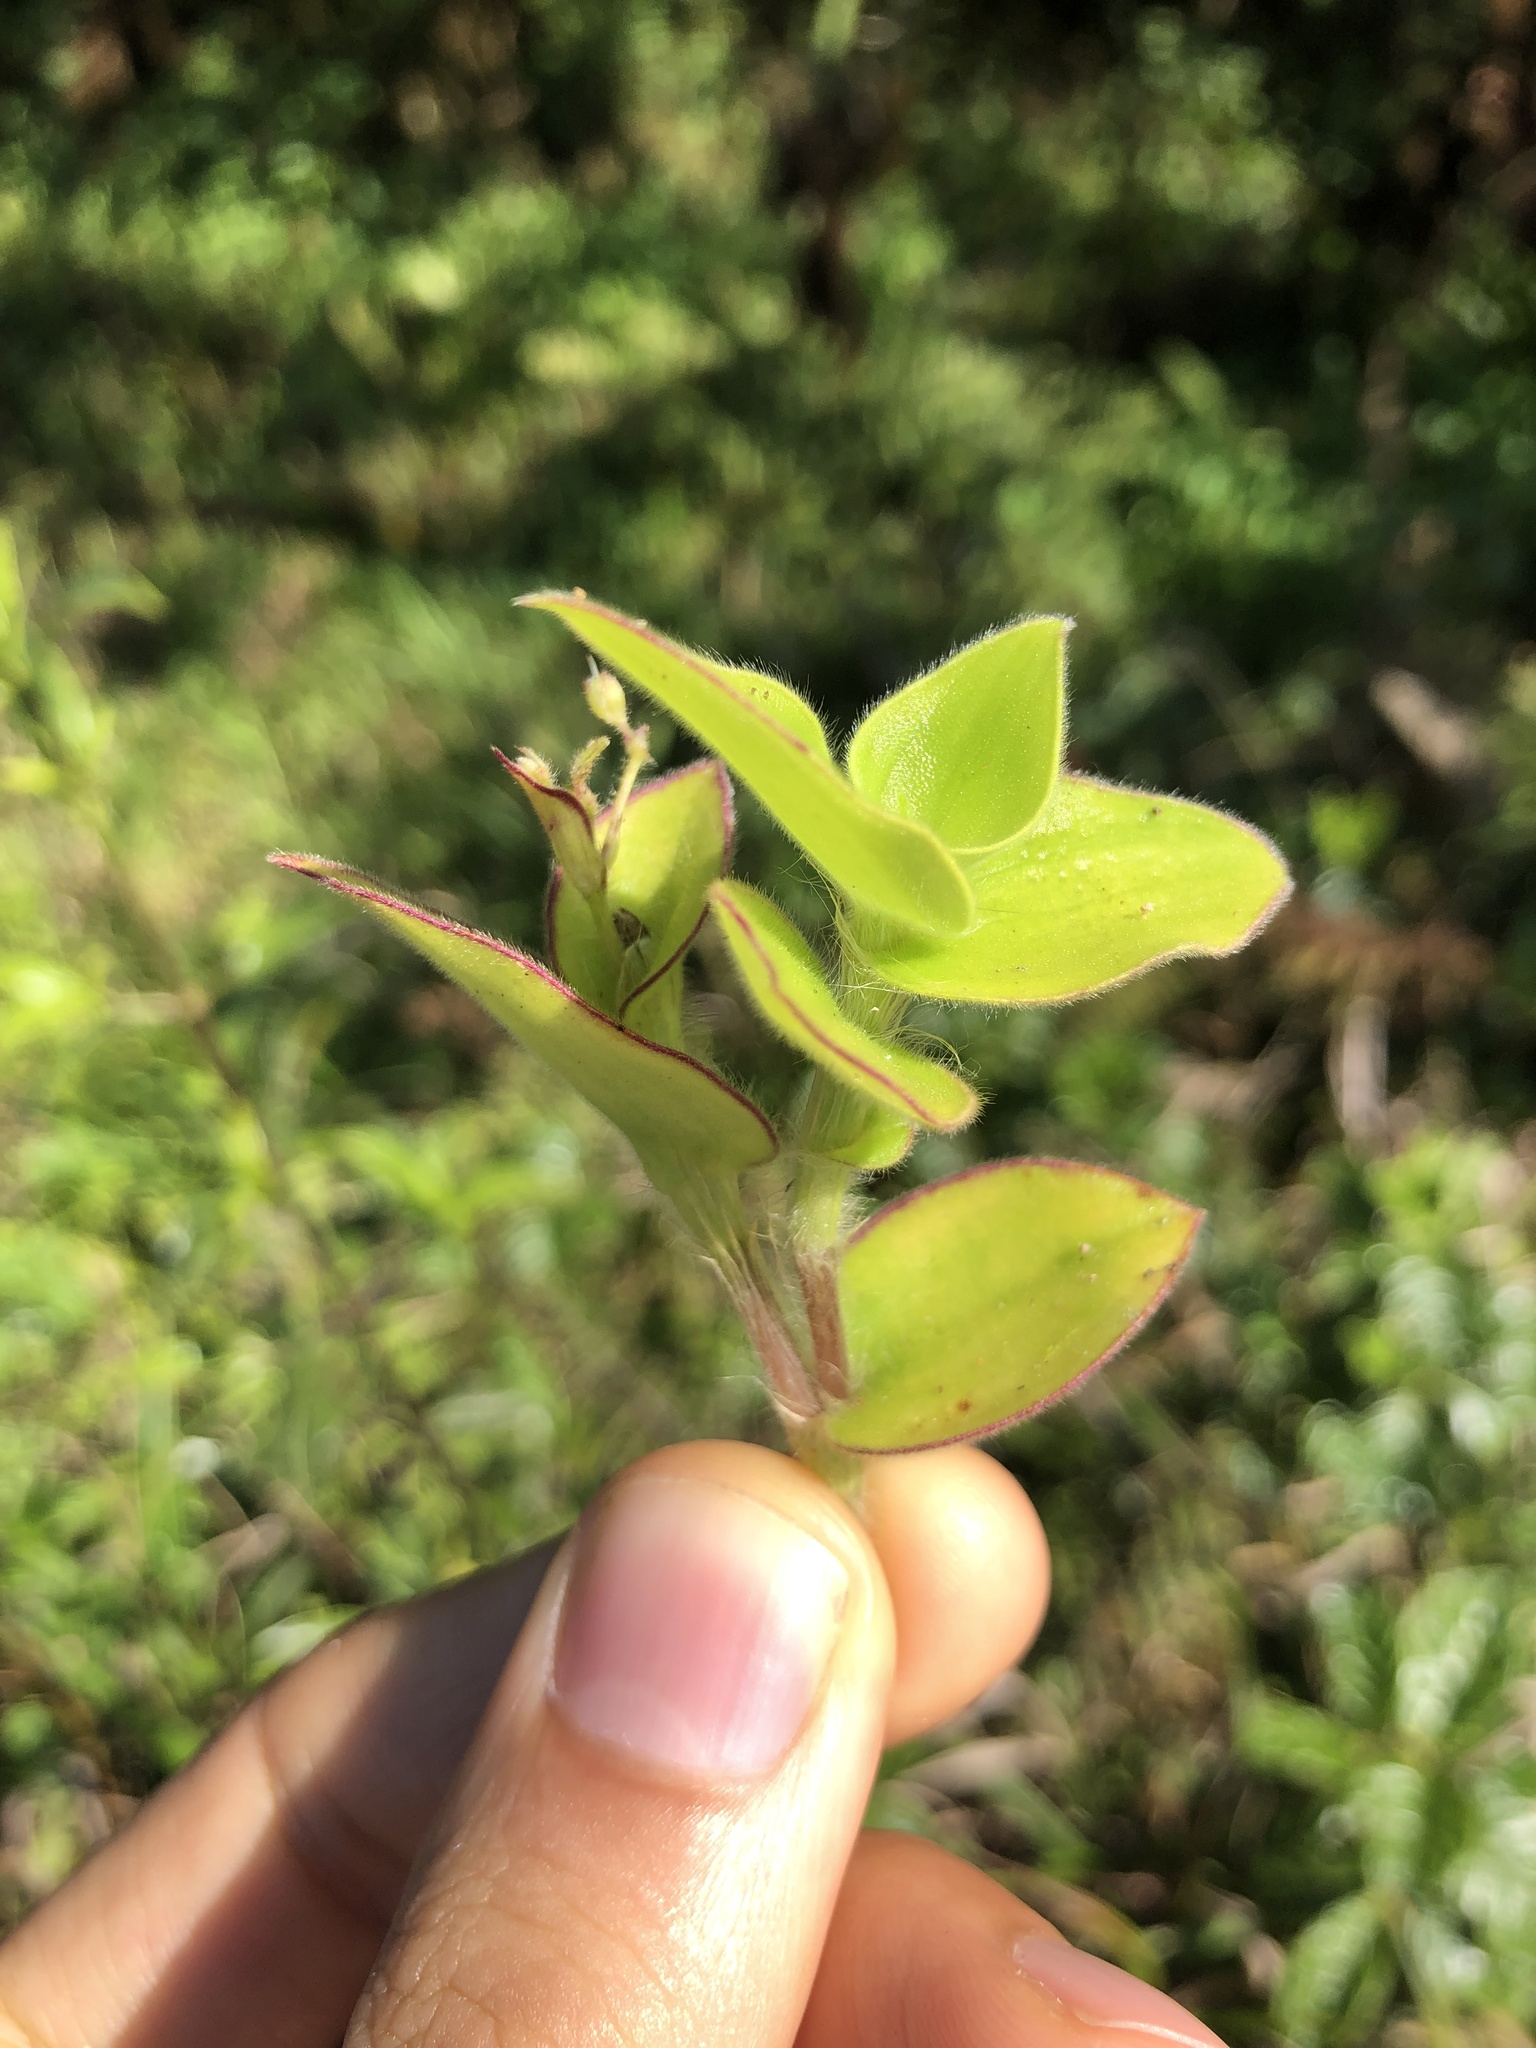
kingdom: Plantae
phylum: Tracheophyta
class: Liliopsida
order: Commelinales
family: Commelinaceae
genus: Commelina
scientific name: Commelina diffusa
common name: Climbing dayflower
